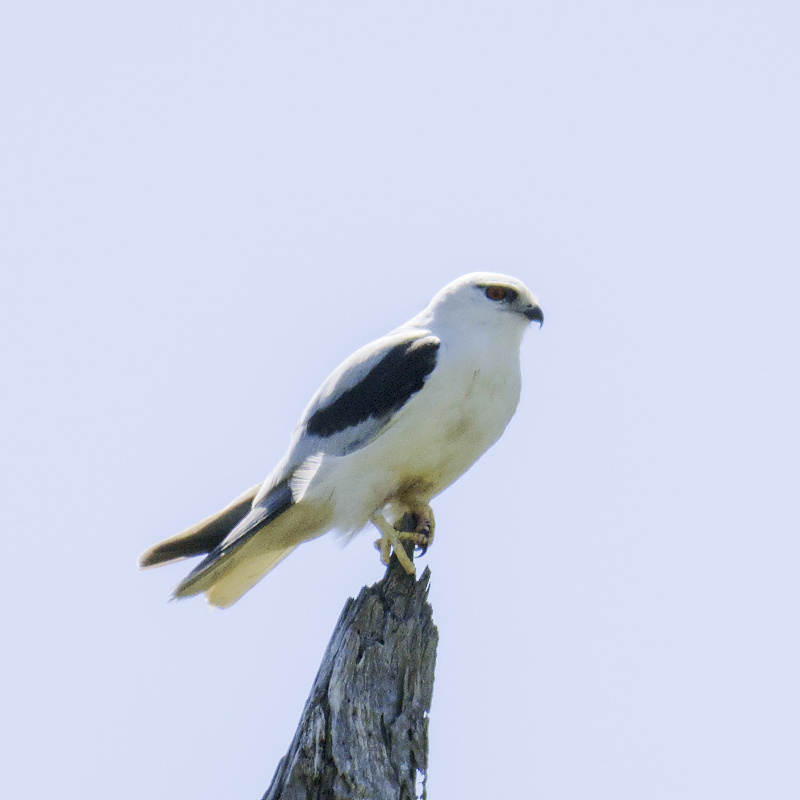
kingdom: Animalia
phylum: Chordata
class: Aves
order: Accipitriformes
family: Accipitridae
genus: Elanus
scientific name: Elanus axillaris
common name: Black-shouldered kite
